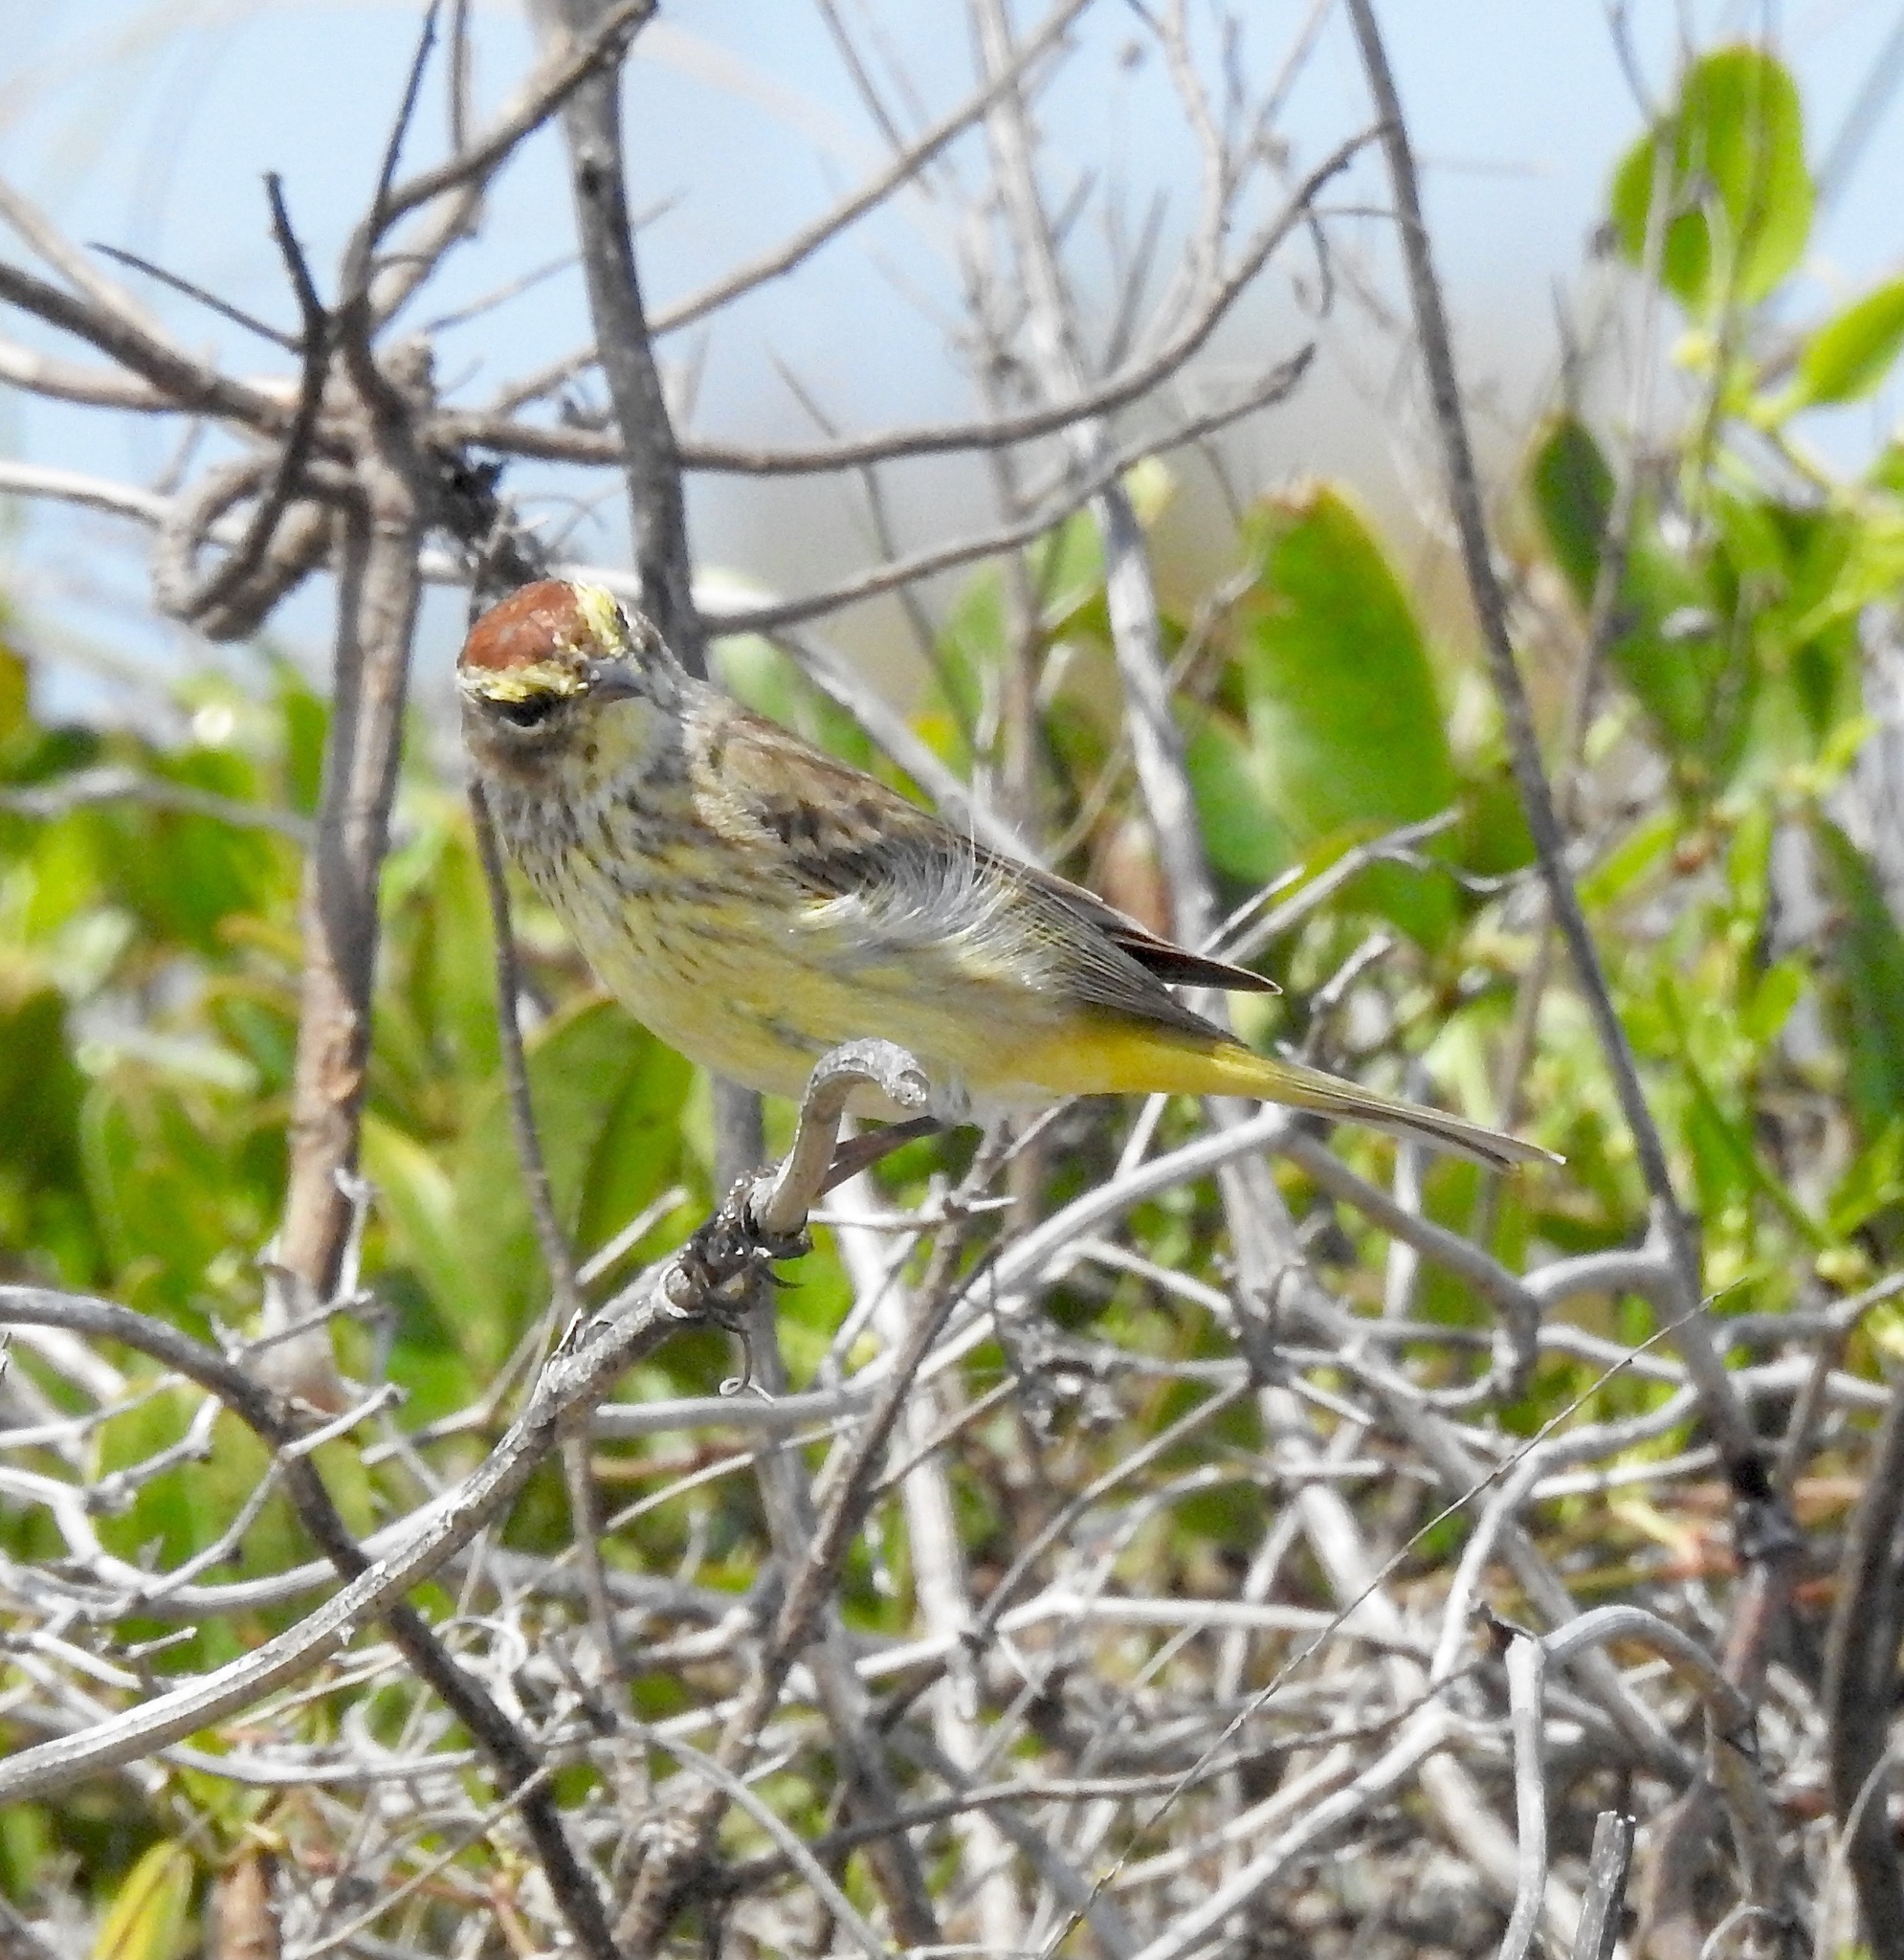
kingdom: Animalia
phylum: Chordata
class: Aves
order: Passeriformes
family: Parulidae
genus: Setophaga
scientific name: Setophaga palmarum
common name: Palm warbler
